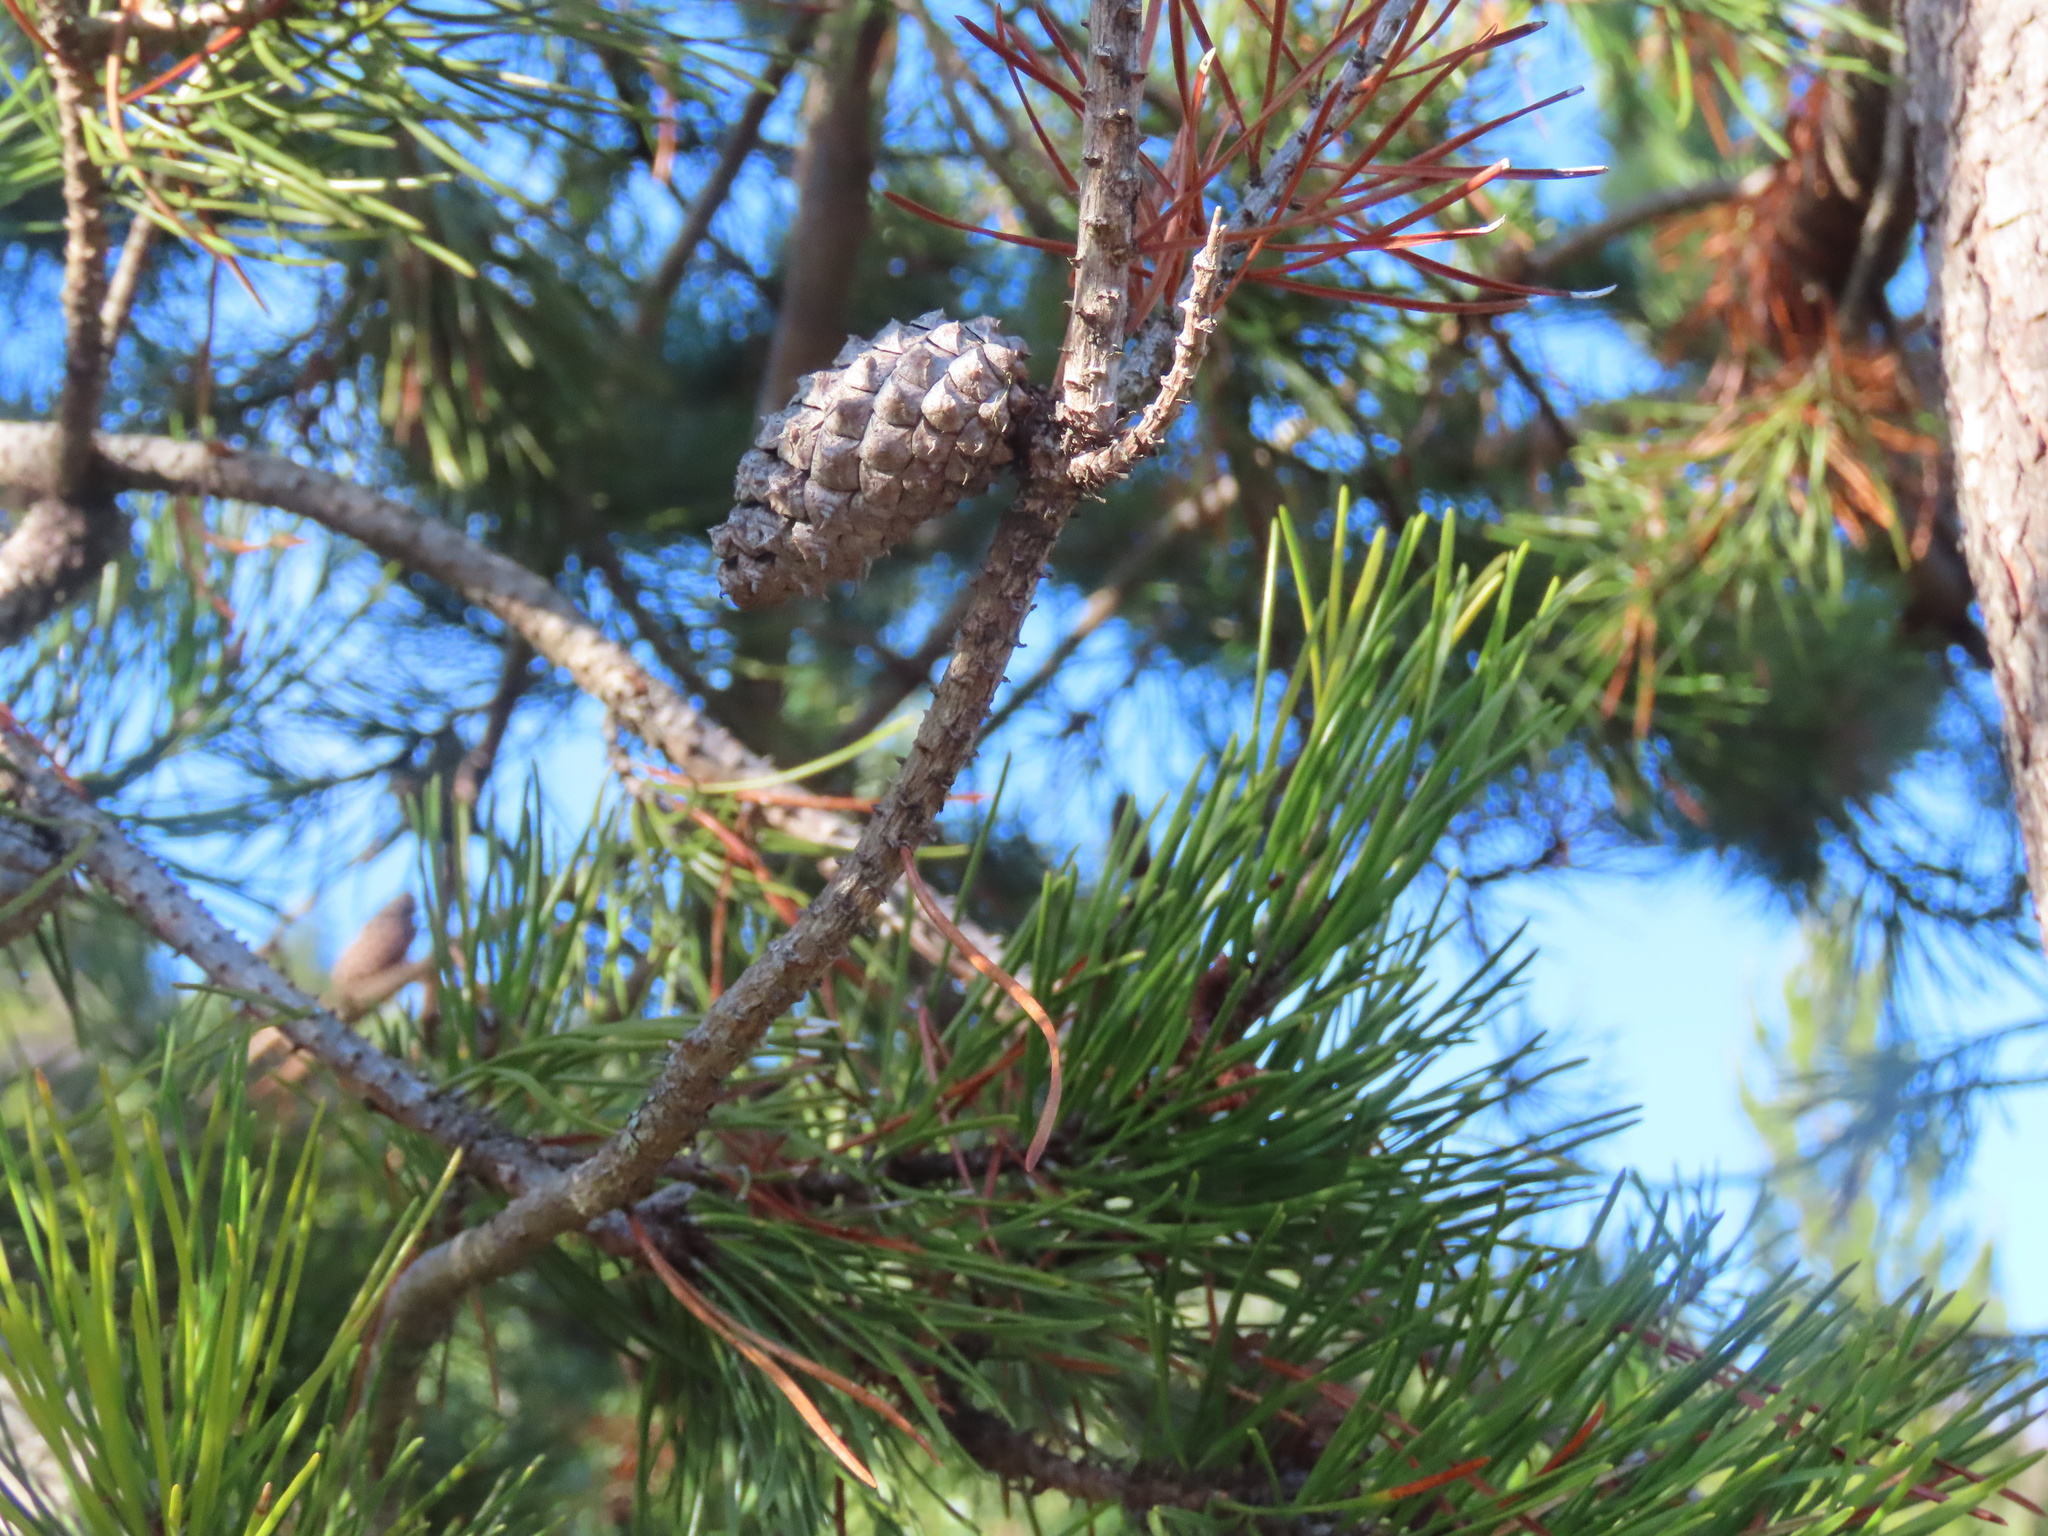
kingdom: Plantae
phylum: Tracheophyta
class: Pinopsida
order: Pinales
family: Pinaceae
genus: Pinus
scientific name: Pinus contorta
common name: Lodgepole pine
